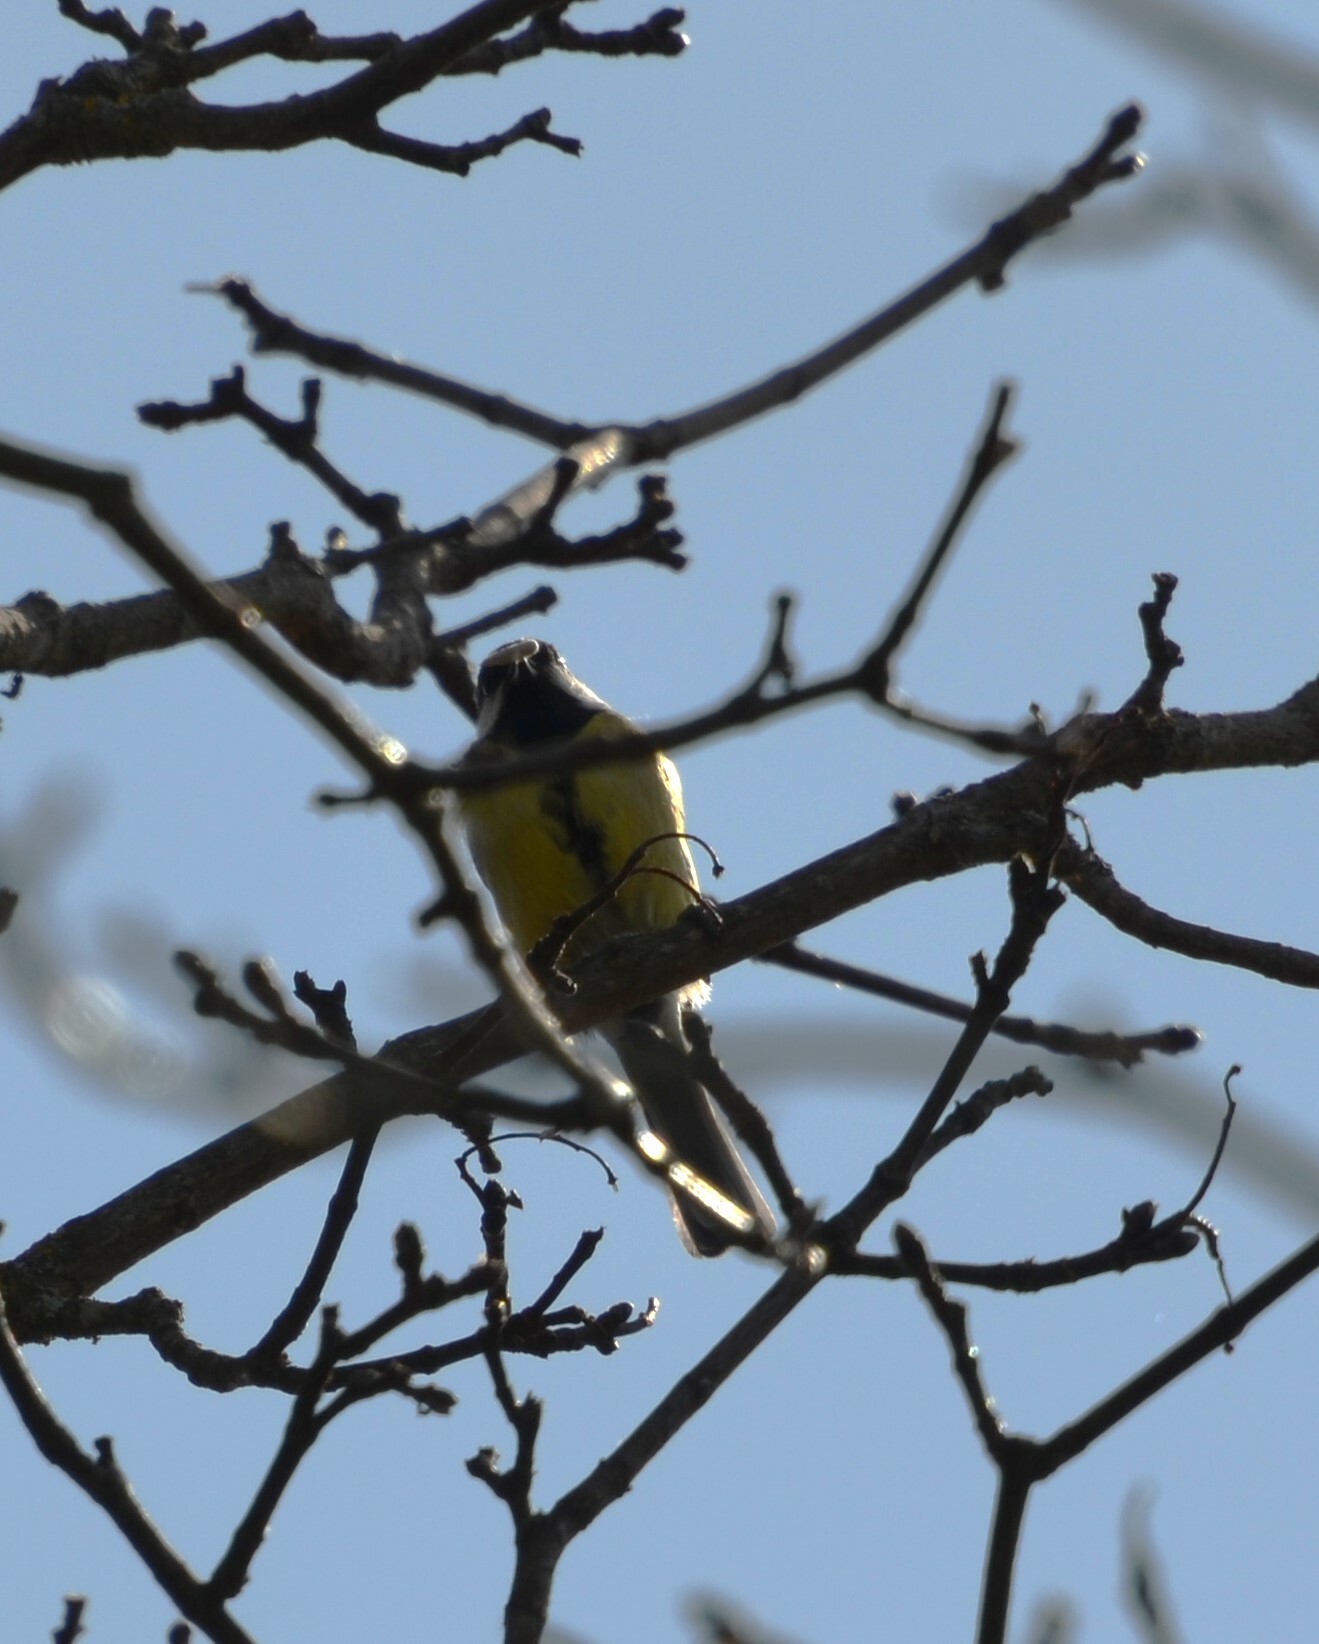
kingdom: Animalia
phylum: Chordata
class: Aves
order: Passeriformes
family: Paridae
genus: Parus
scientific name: Parus major
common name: Great tit
